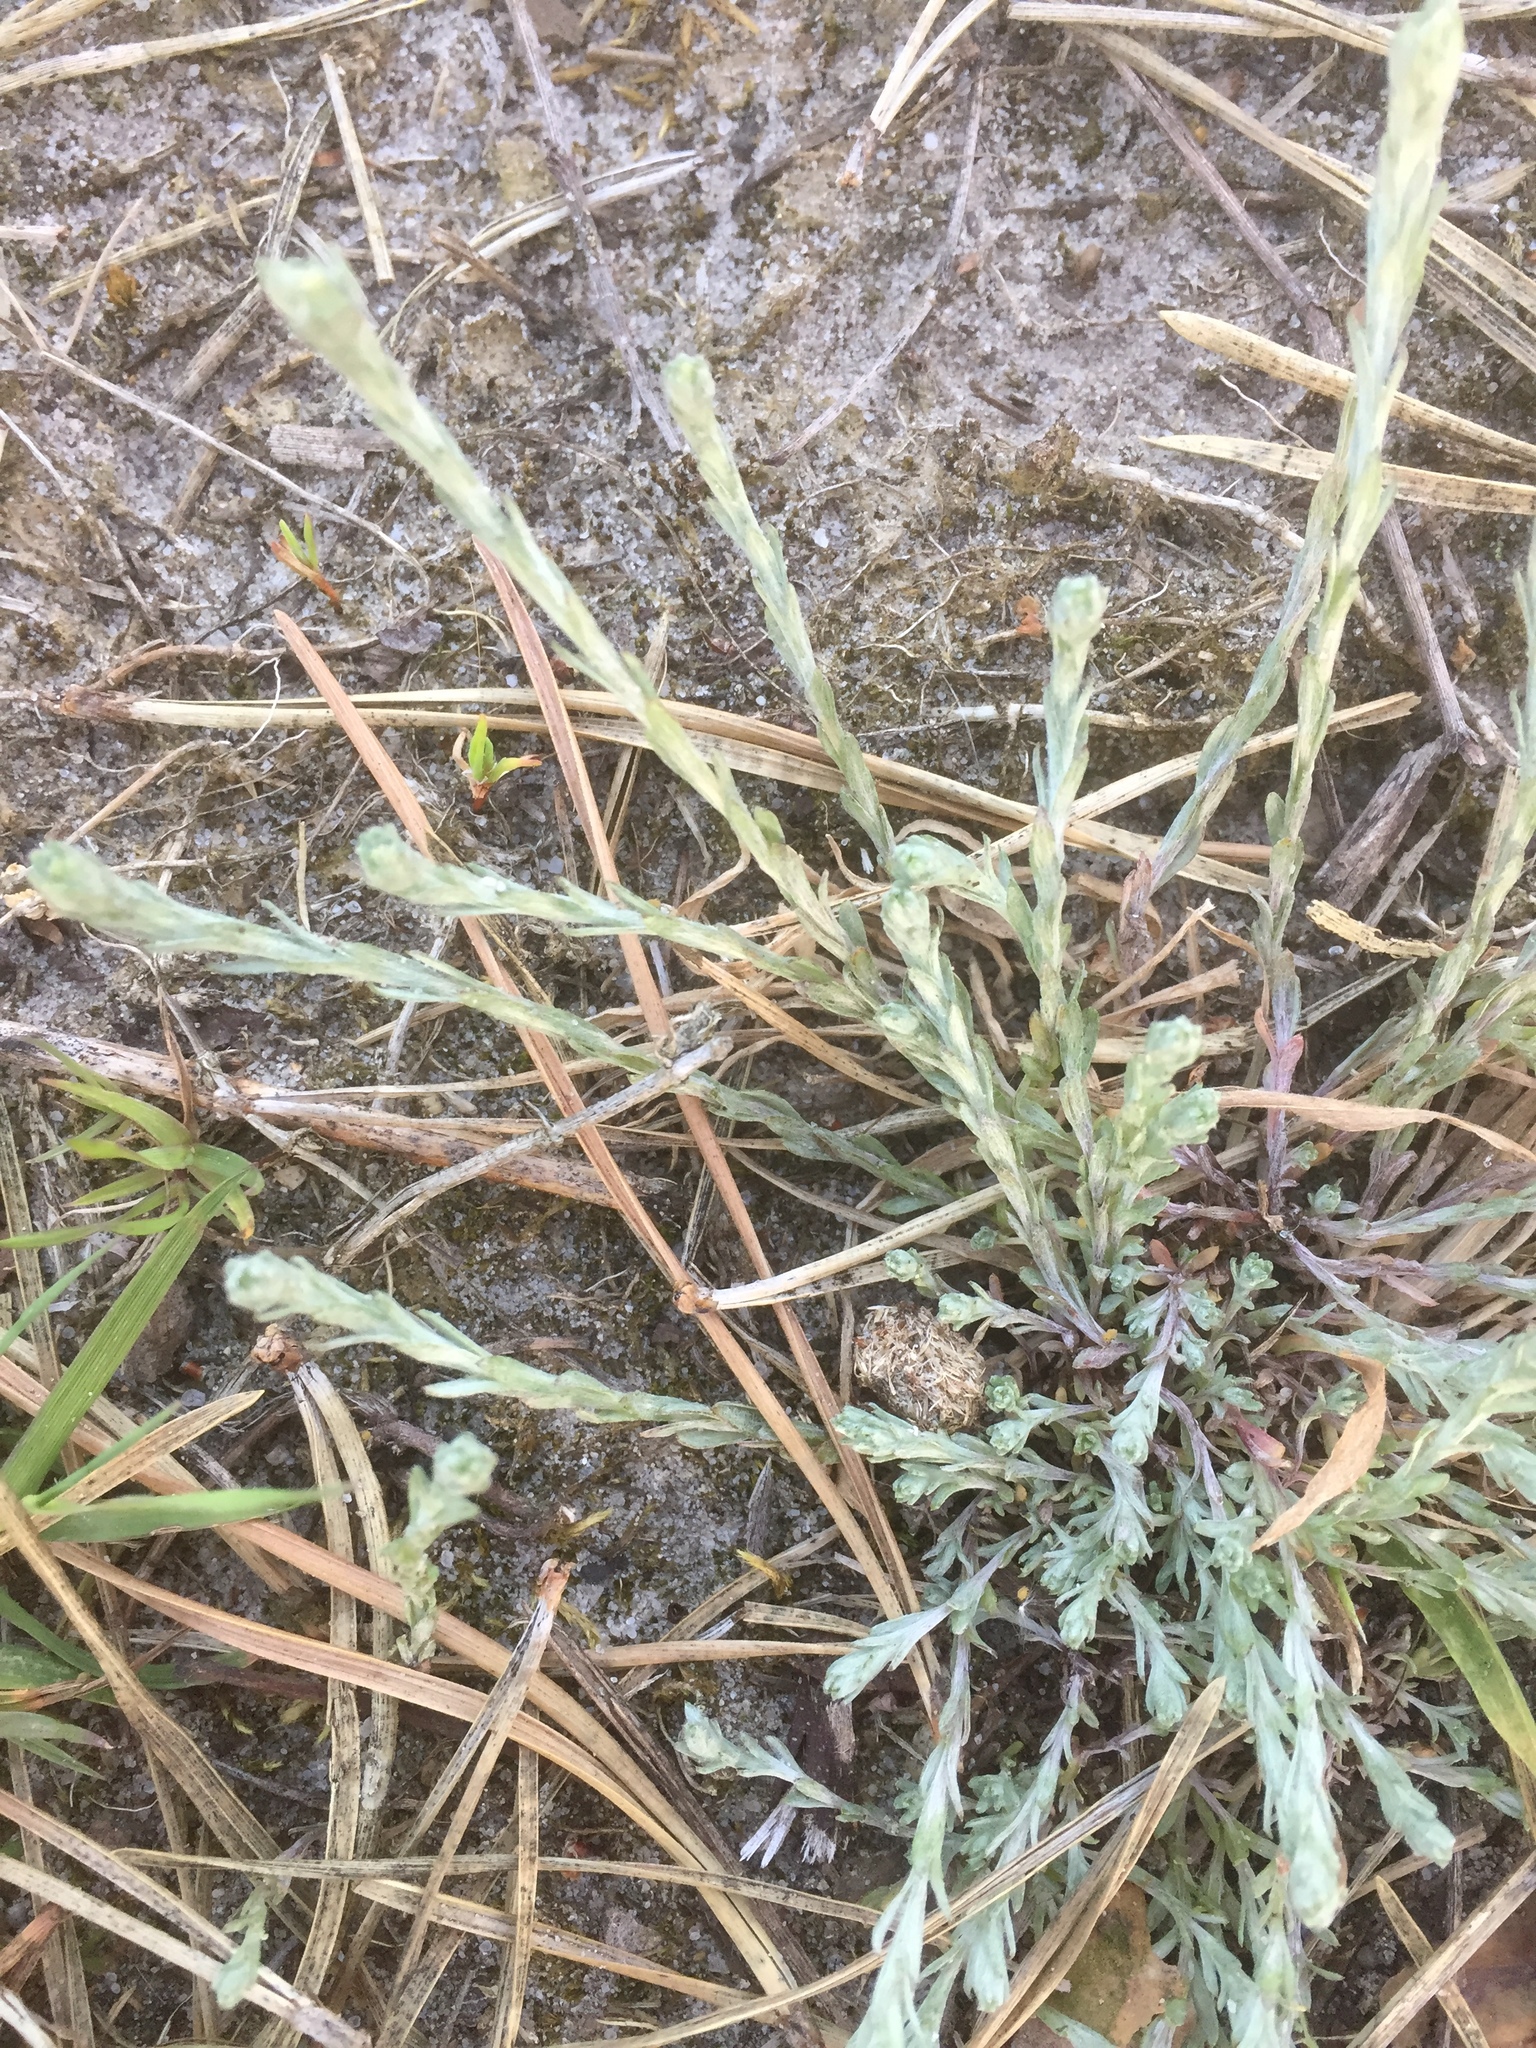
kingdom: Plantae
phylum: Tracheophyta
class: Magnoliopsida
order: Asterales
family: Asteraceae
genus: Logfia
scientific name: Logfia minima
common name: Little cottonrose
